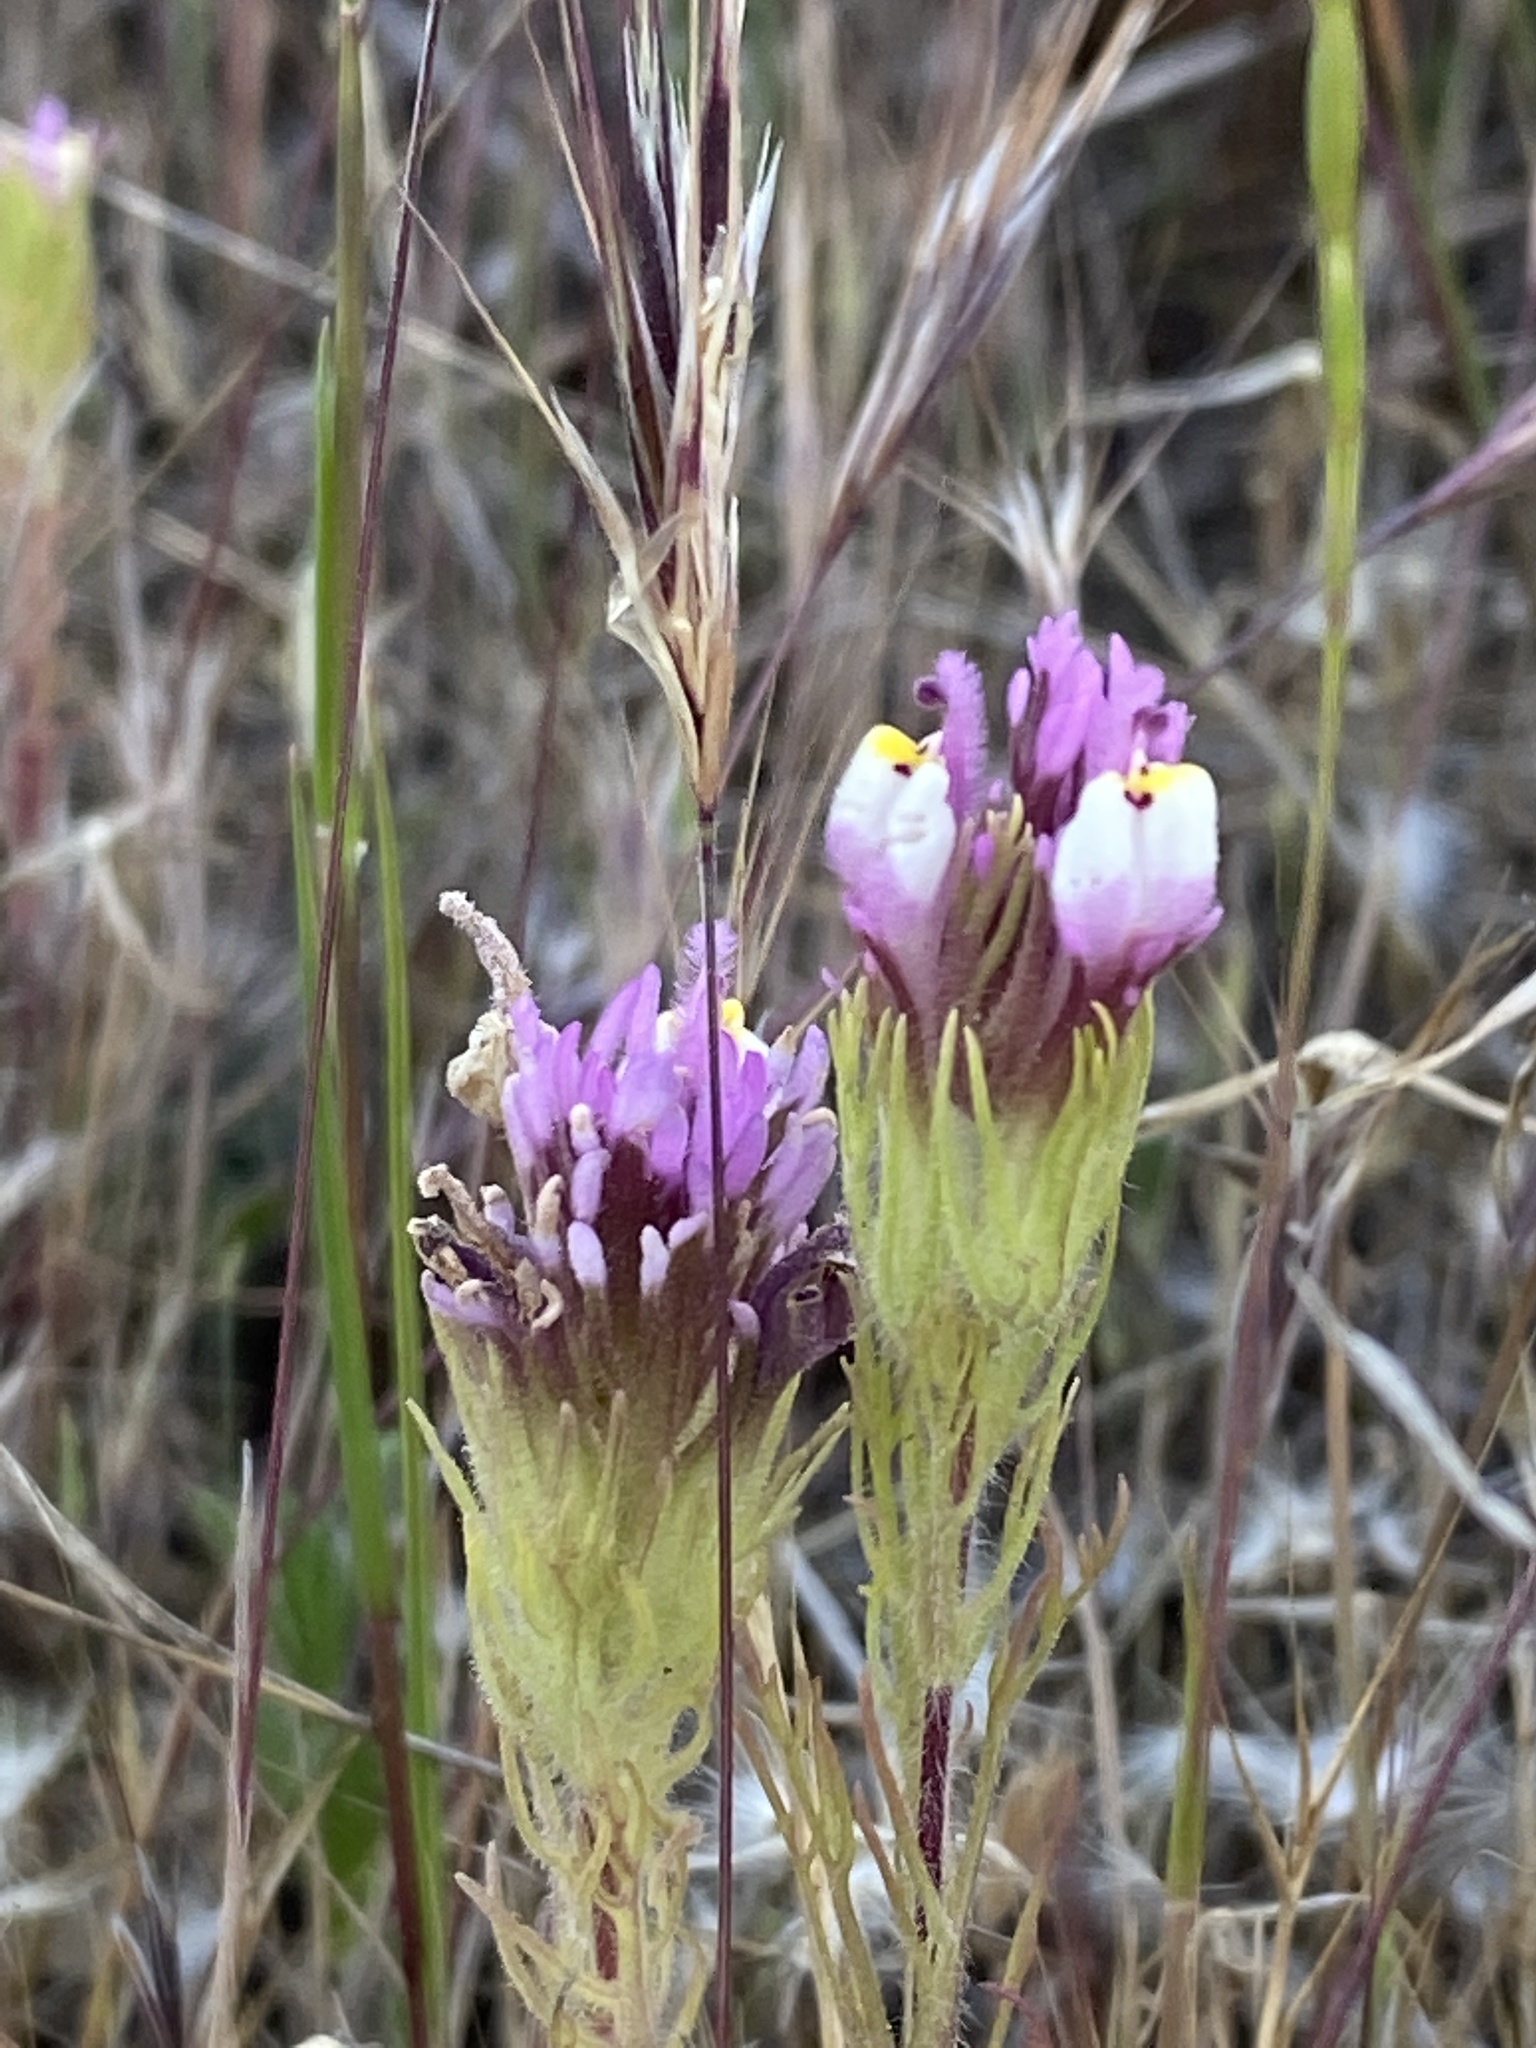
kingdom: Plantae
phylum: Tracheophyta
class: Magnoliopsida
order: Lamiales
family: Orobanchaceae
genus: Castilleja
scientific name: Castilleja exserta
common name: Purple owl-clover
